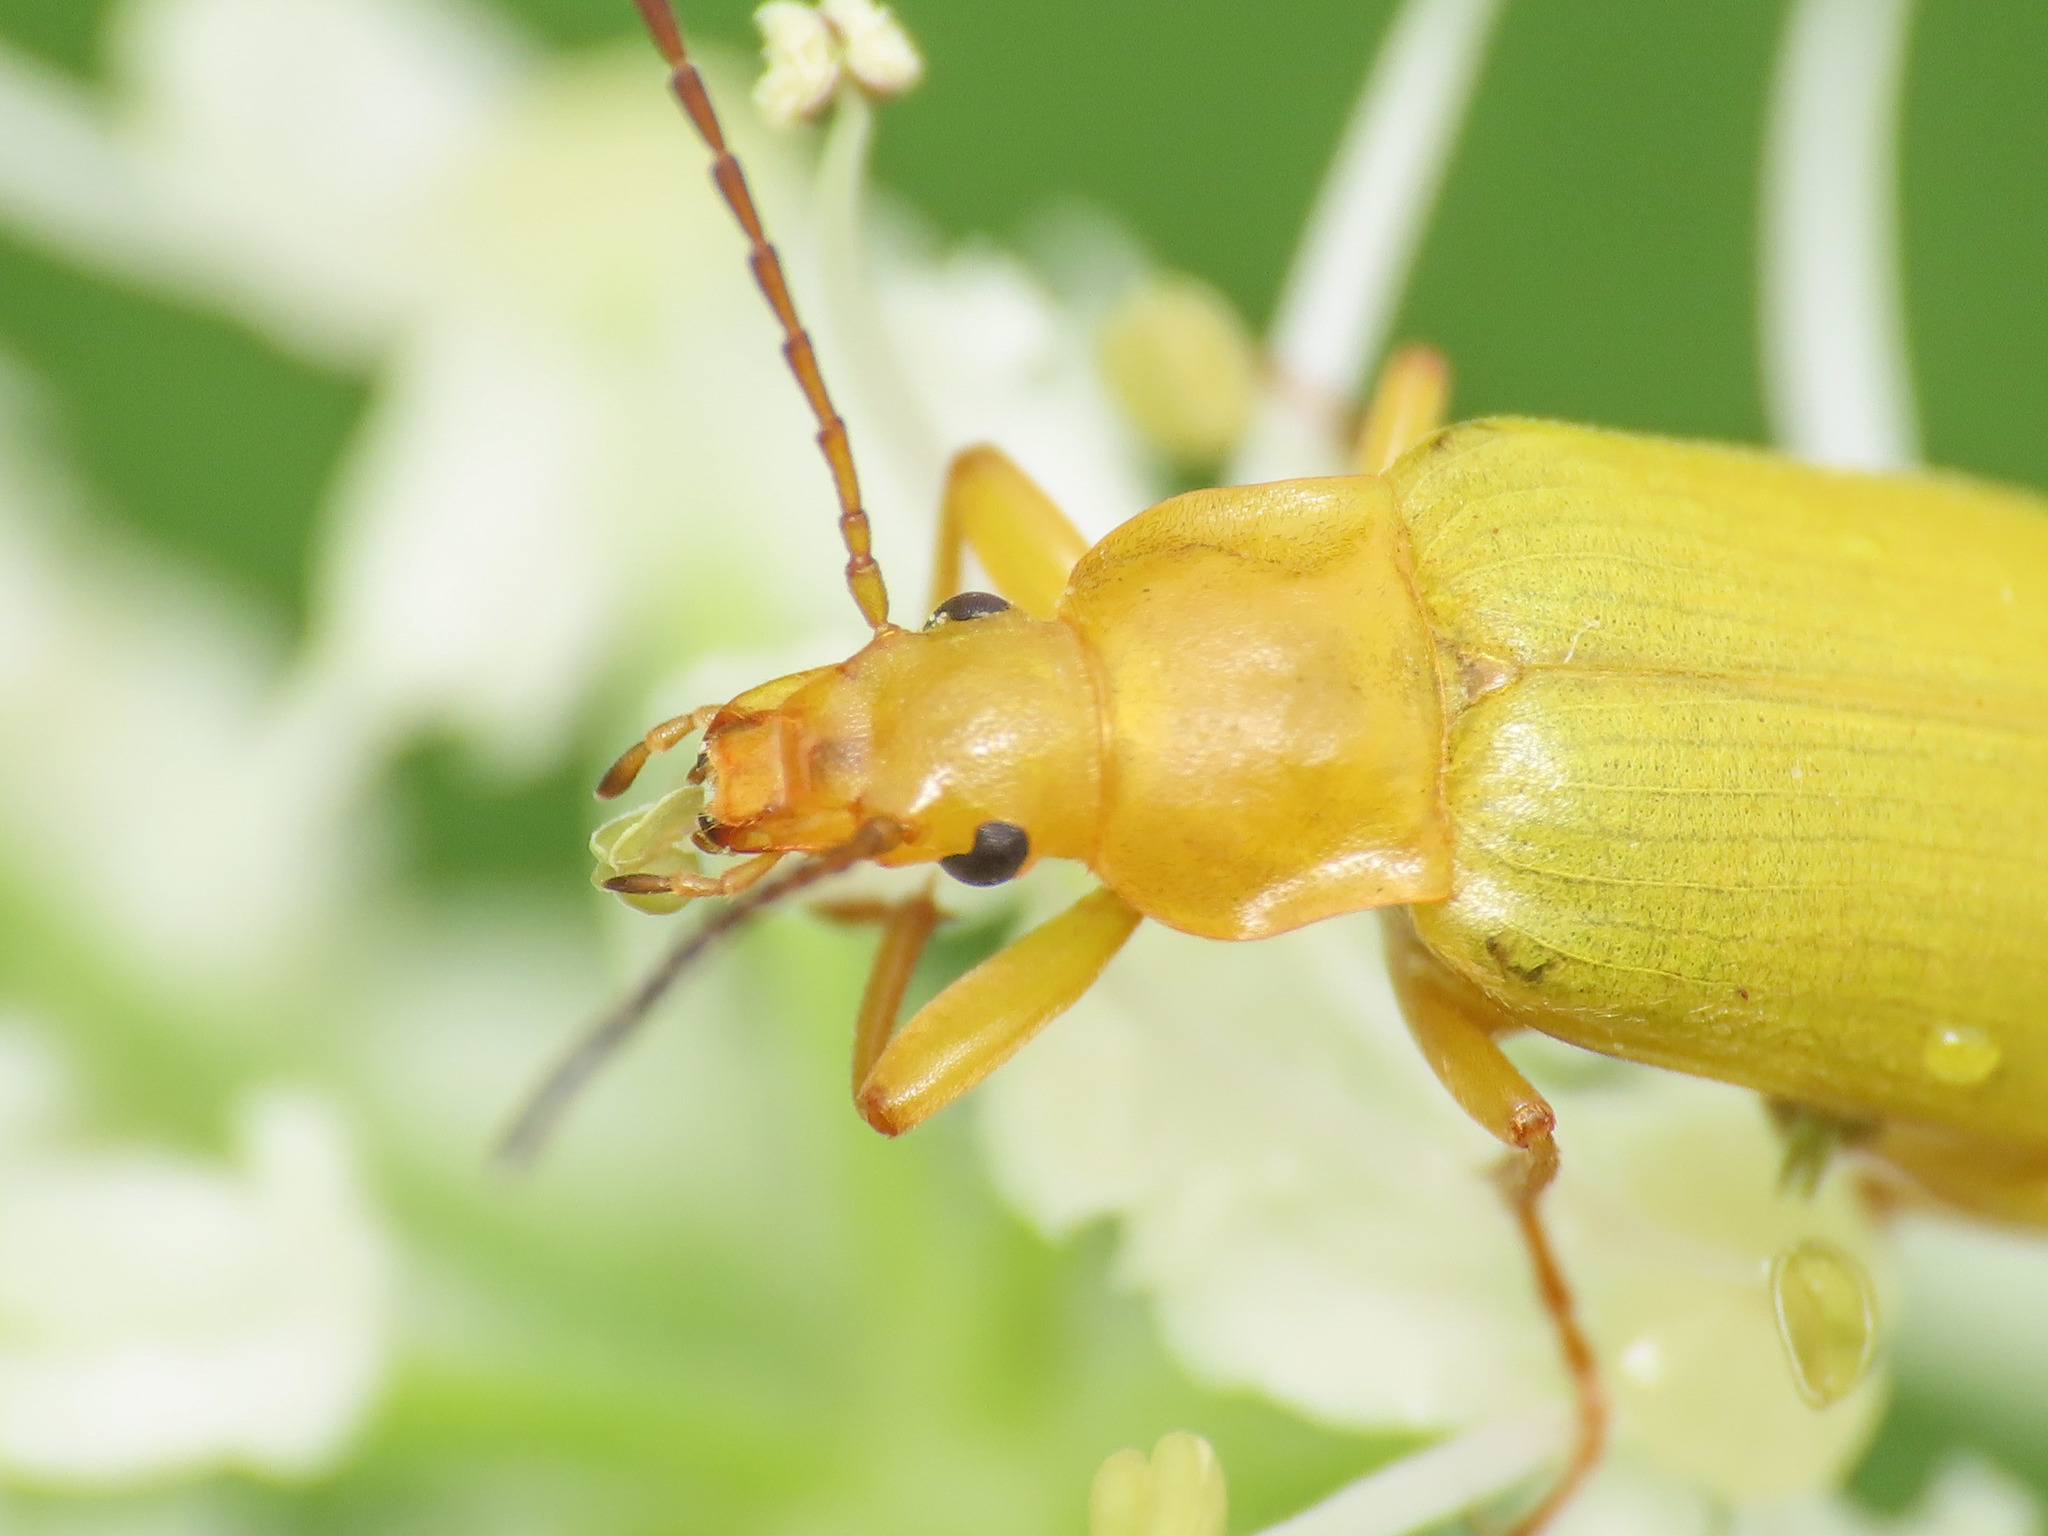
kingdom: Animalia
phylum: Arthropoda
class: Insecta
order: Coleoptera
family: Tenebrionidae
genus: Cteniopus
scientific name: Cteniopus sulphureus
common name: Sulphur beetle
